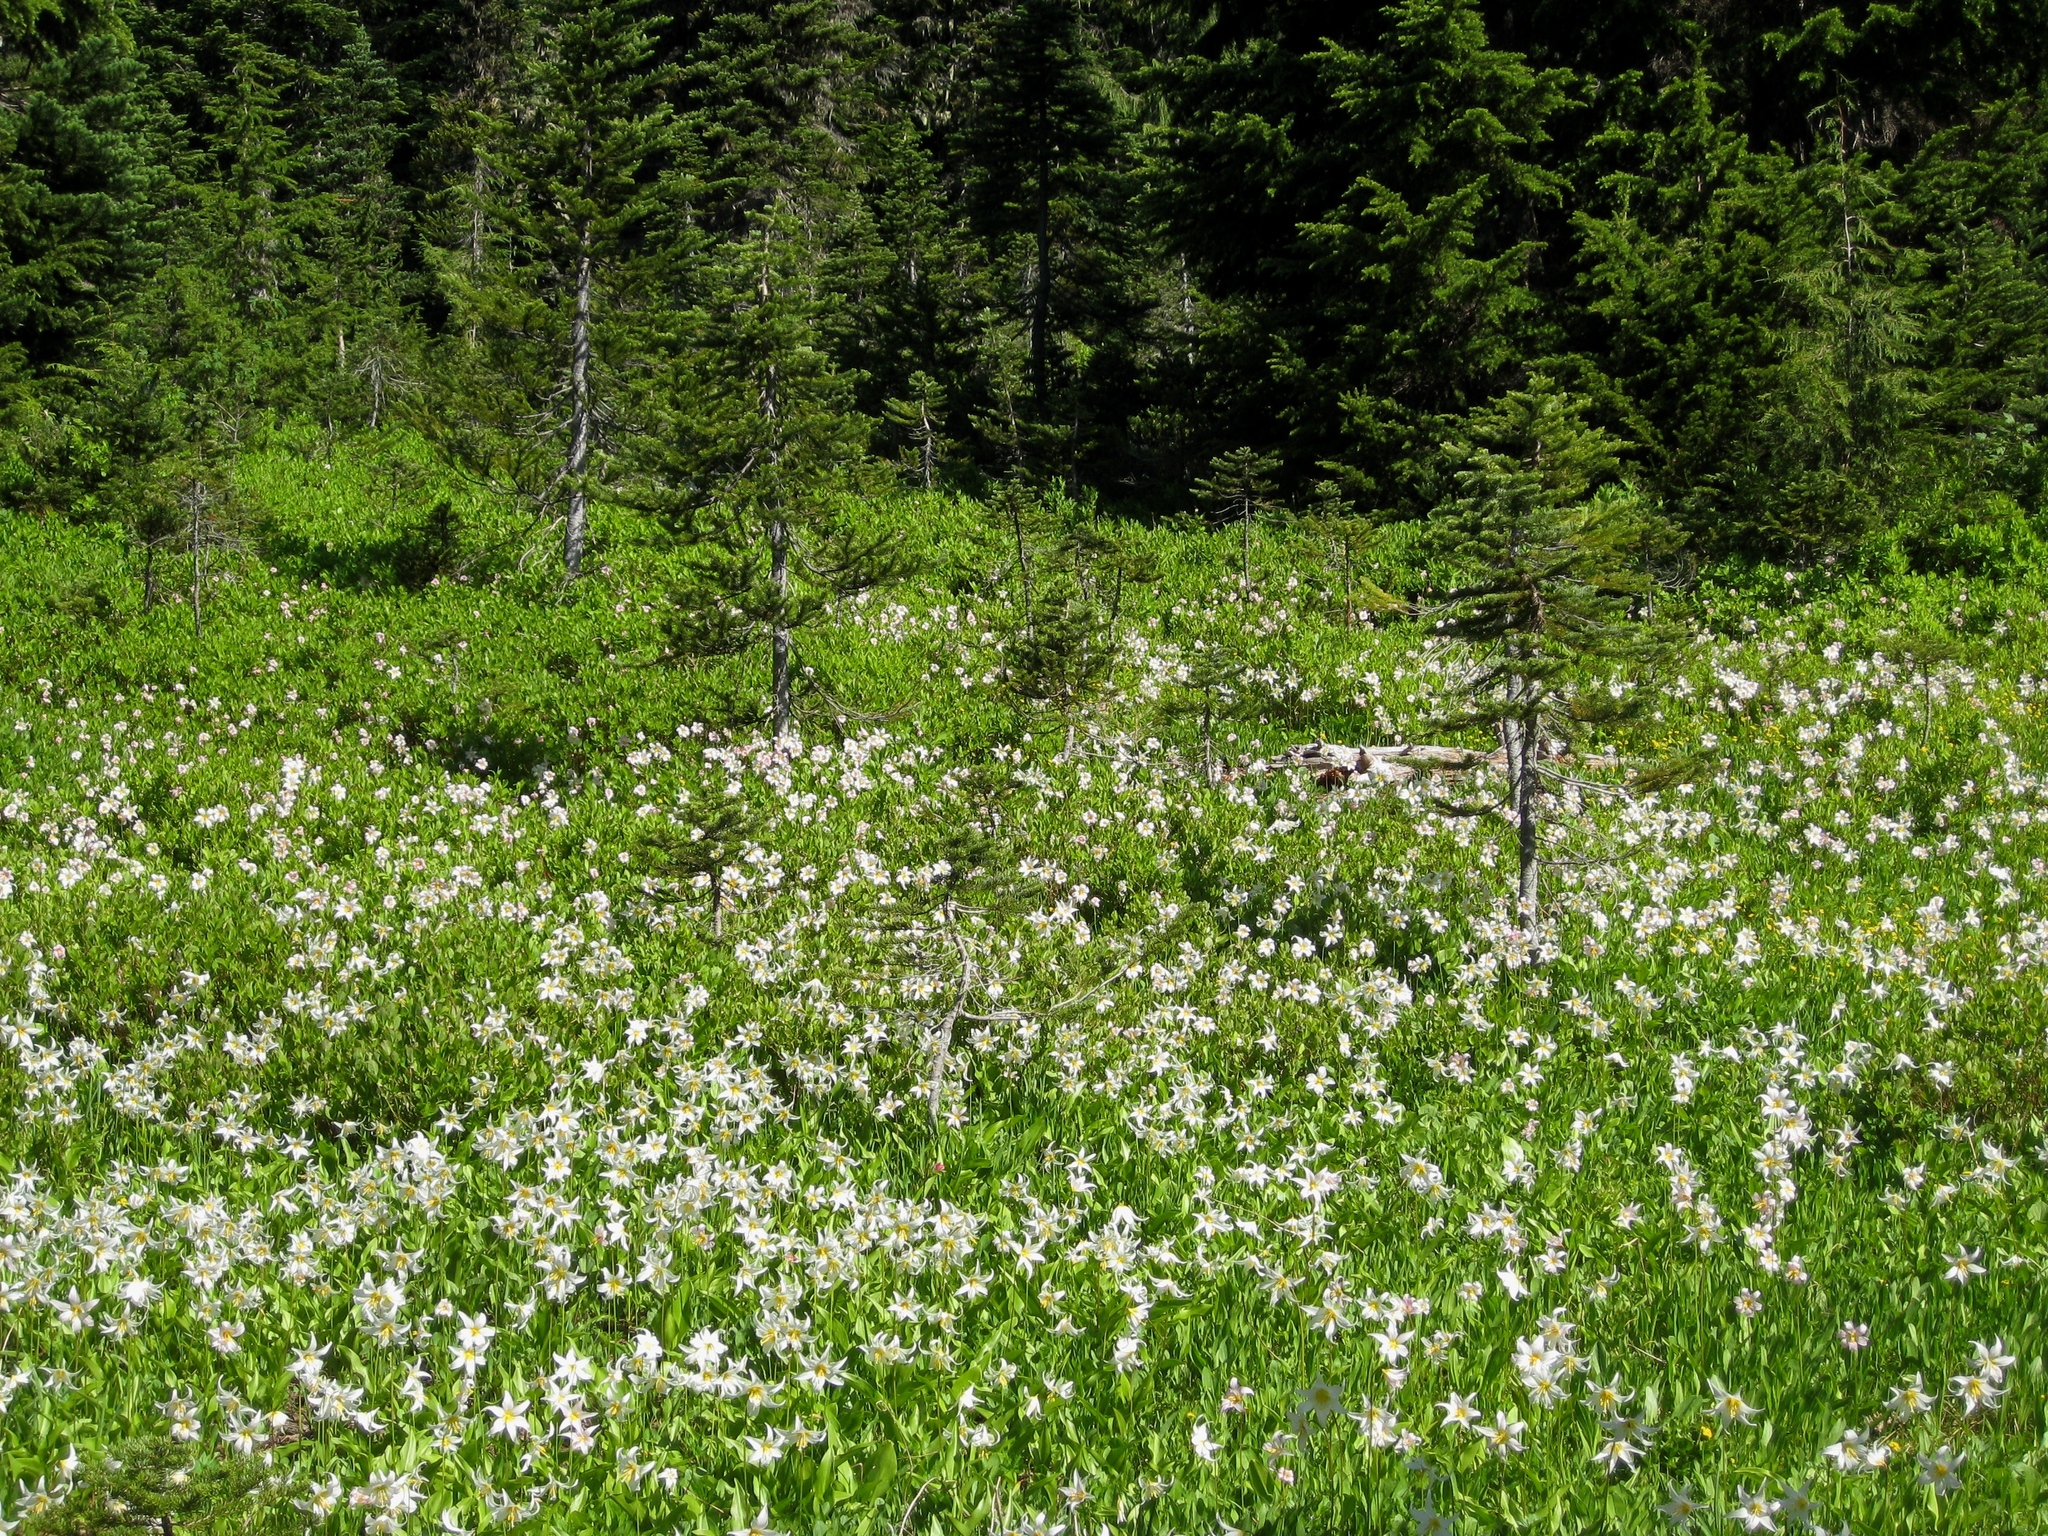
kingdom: Plantae
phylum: Tracheophyta
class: Liliopsida
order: Liliales
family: Liliaceae
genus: Erythronium
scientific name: Erythronium montanum
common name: Avalanche lily
